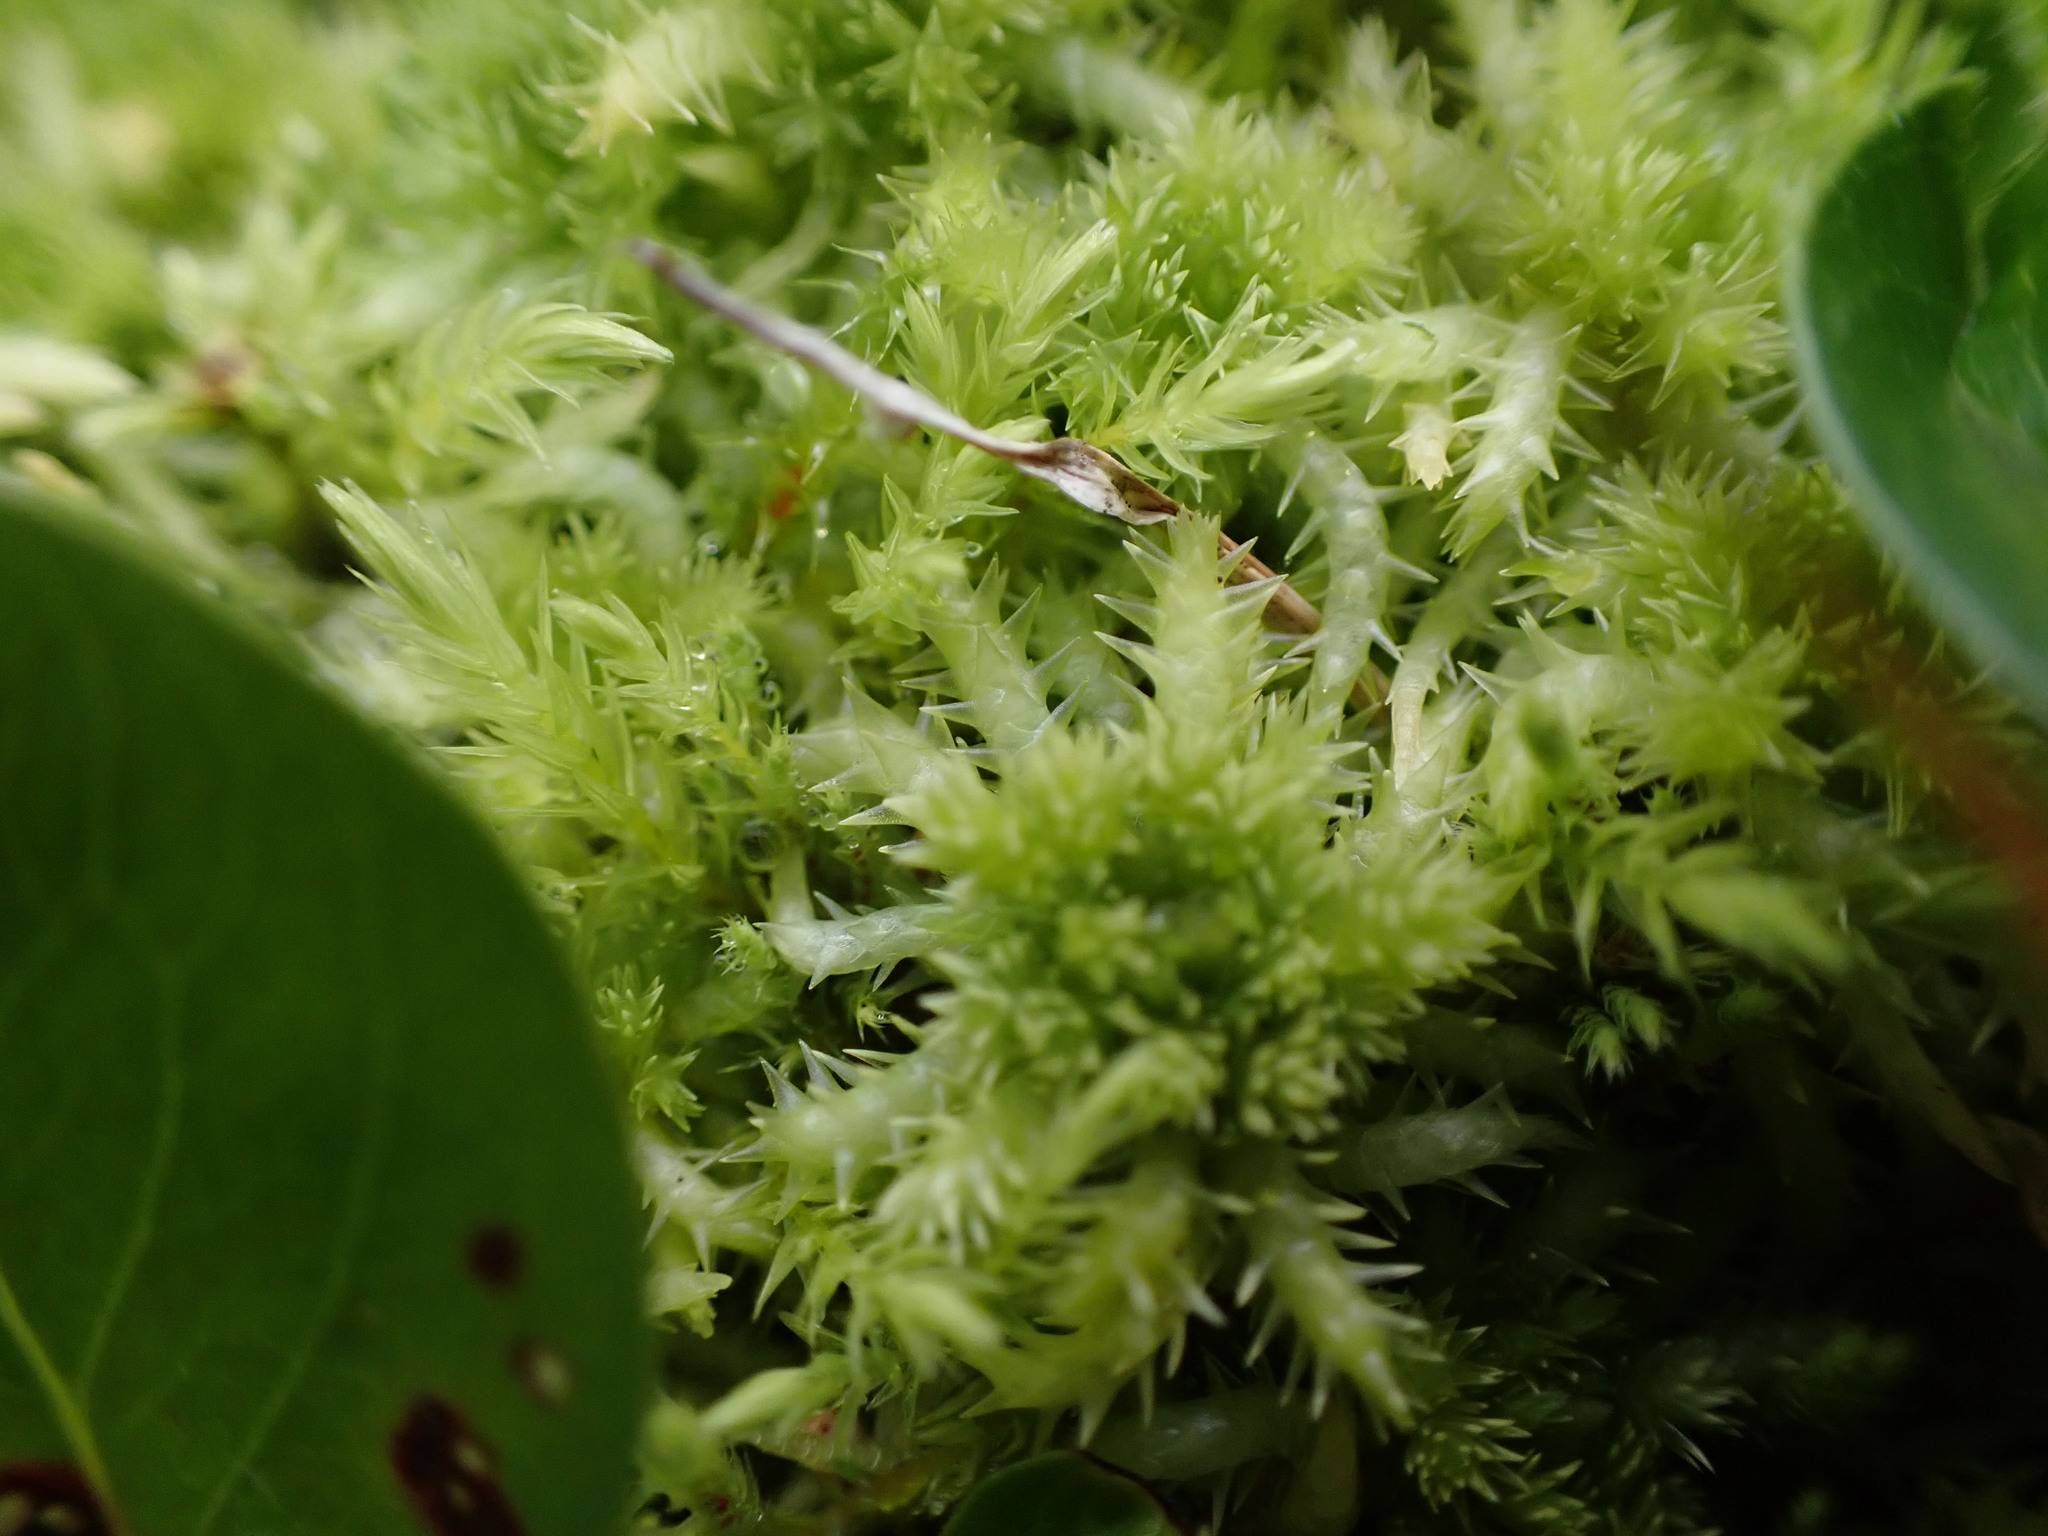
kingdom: Plantae
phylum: Bryophyta
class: Sphagnopsida
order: Sphagnales
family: Sphagnaceae
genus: Sphagnum
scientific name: Sphagnum squarrosum
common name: Shaggy peat moss
